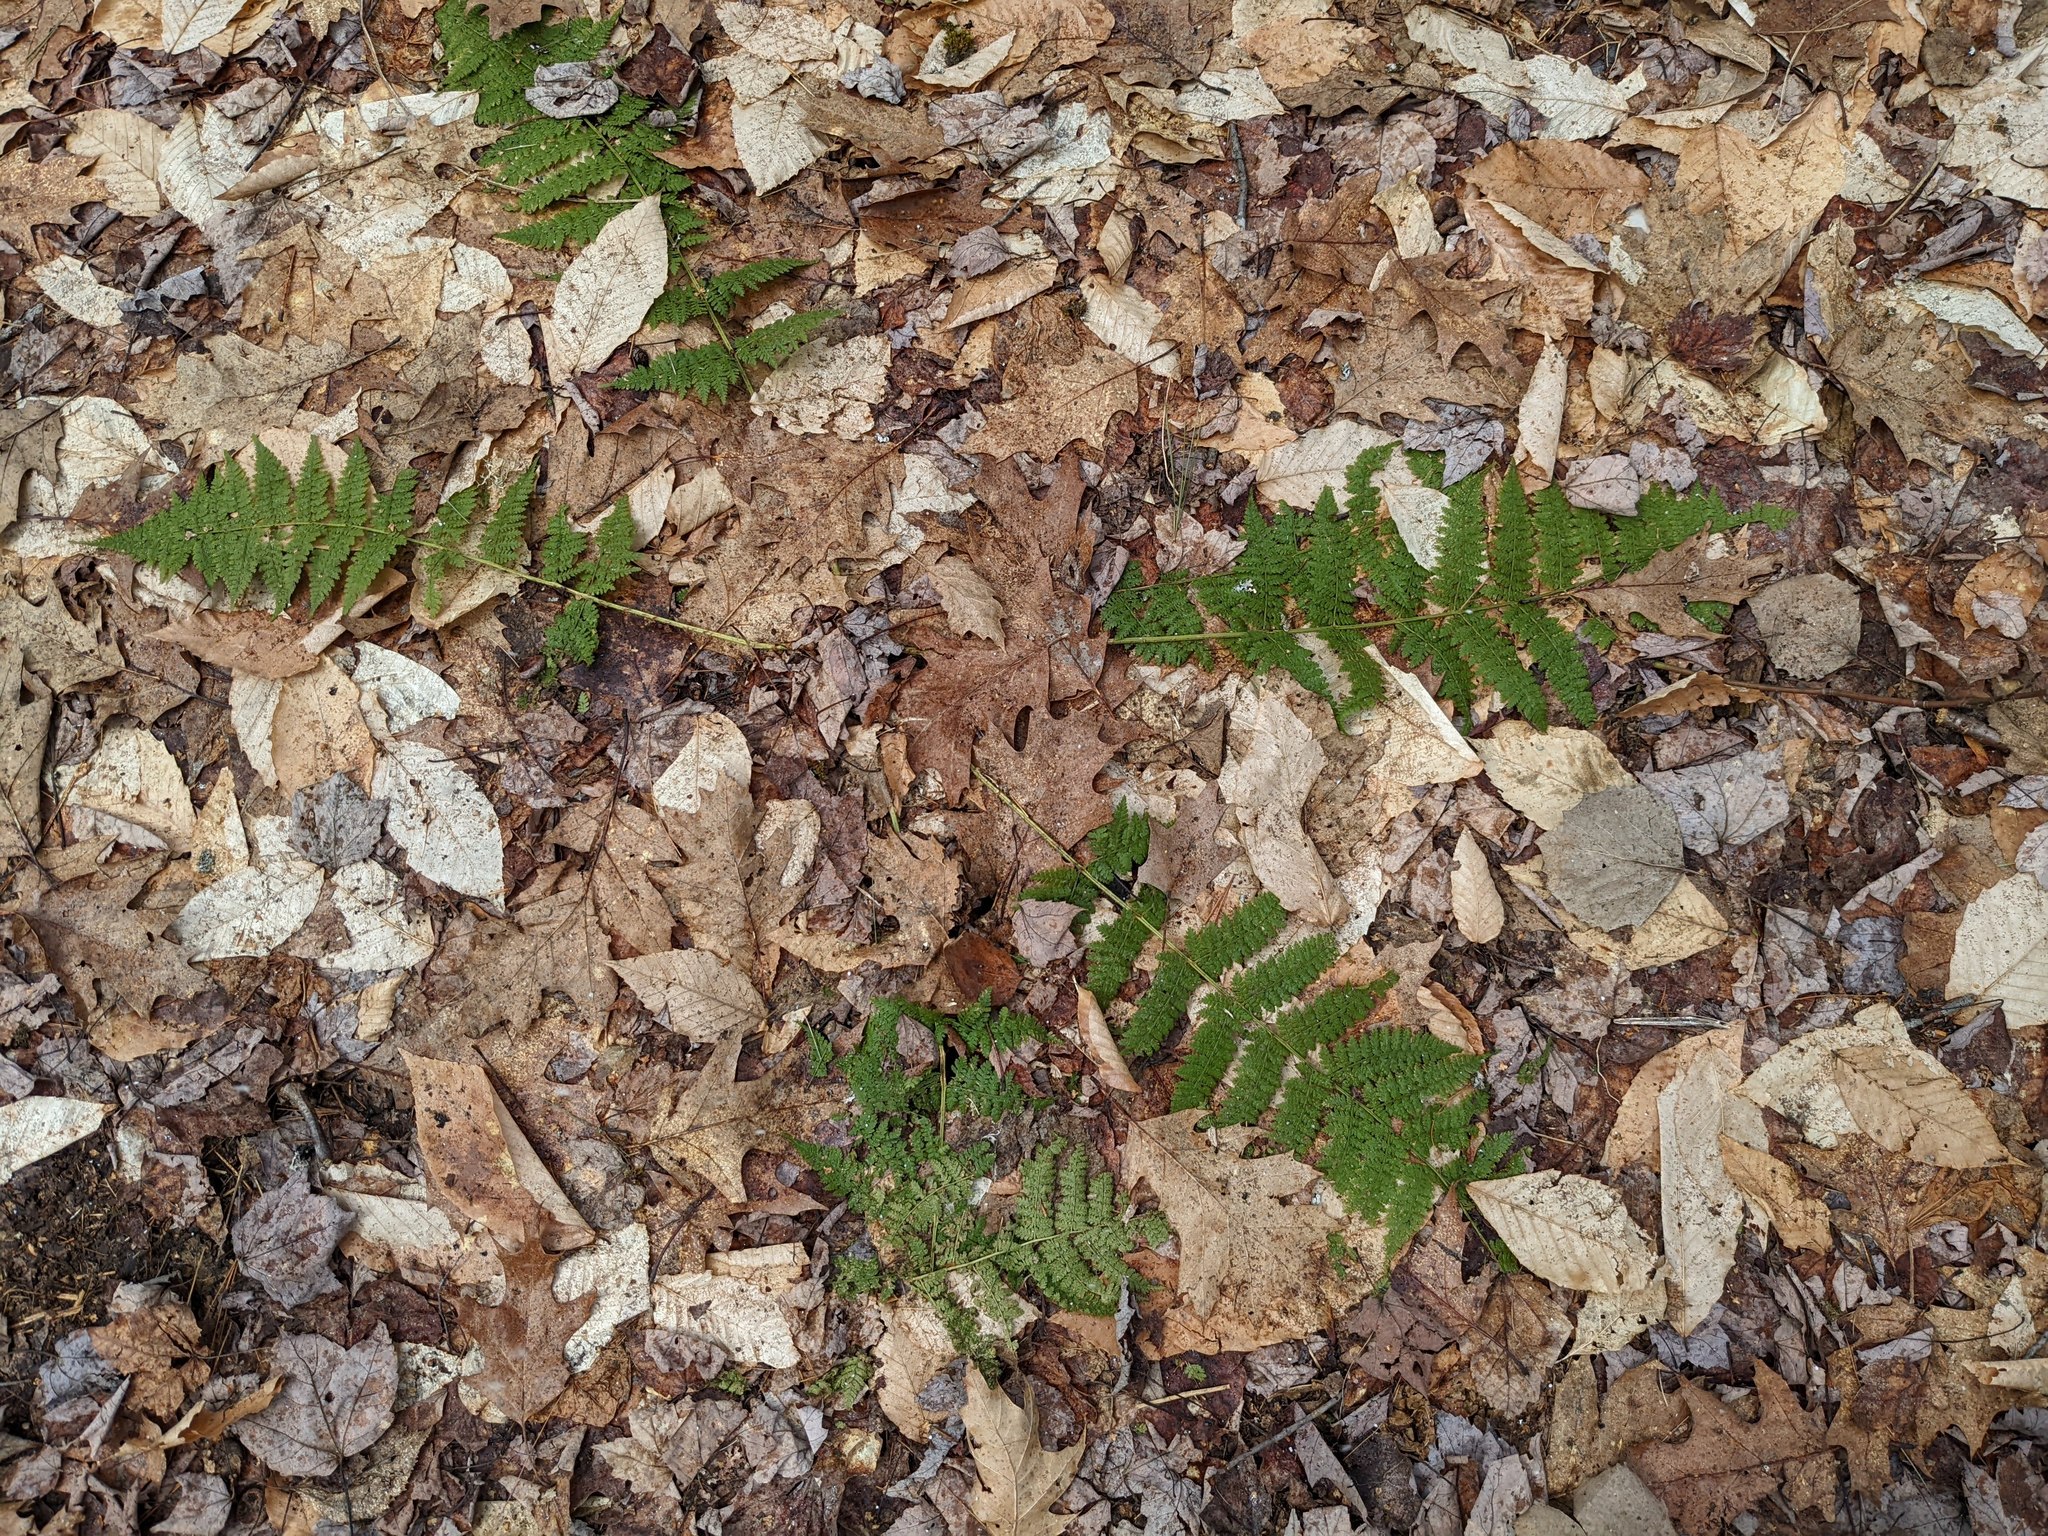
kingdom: Plantae
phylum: Tracheophyta
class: Polypodiopsida
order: Polypodiales
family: Dryopteridaceae
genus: Dryopteris
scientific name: Dryopteris intermedia
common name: Evergreen wood fern
